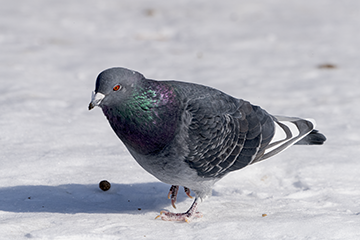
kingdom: Animalia
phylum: Chordata
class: Aves
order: Columbiformes
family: Columbidae
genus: Columba
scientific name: Columba livia
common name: Rock pigeon
